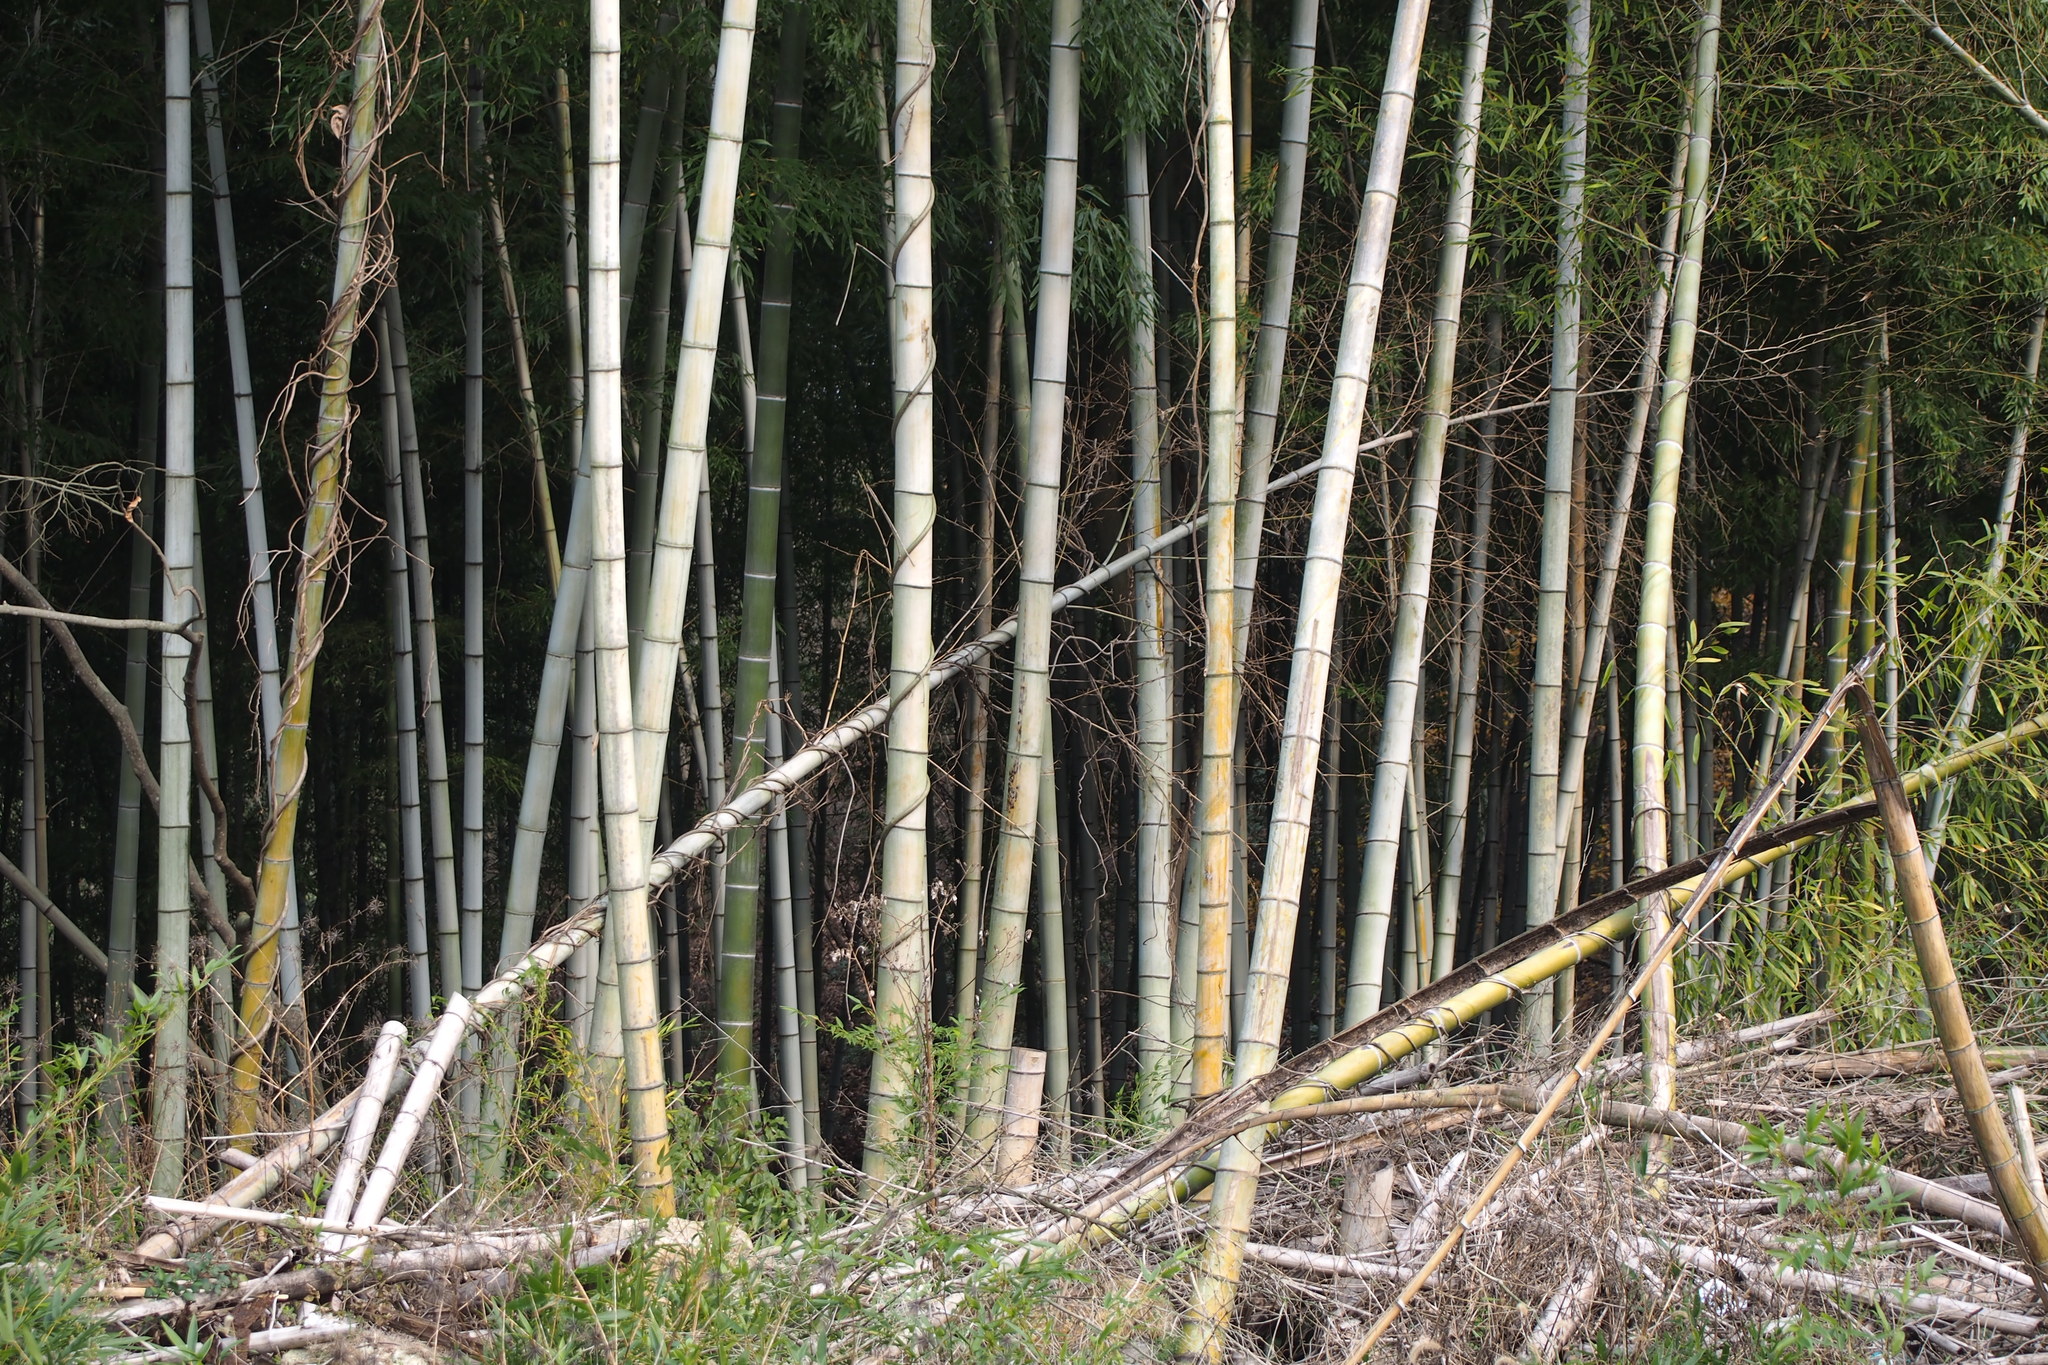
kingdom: Plantae
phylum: Tracheophyta
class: Liliopsida
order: Poales
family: Poaceae
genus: Phyllostachys
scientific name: Phyllostachys edulis
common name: Tortoise shell bamboo
